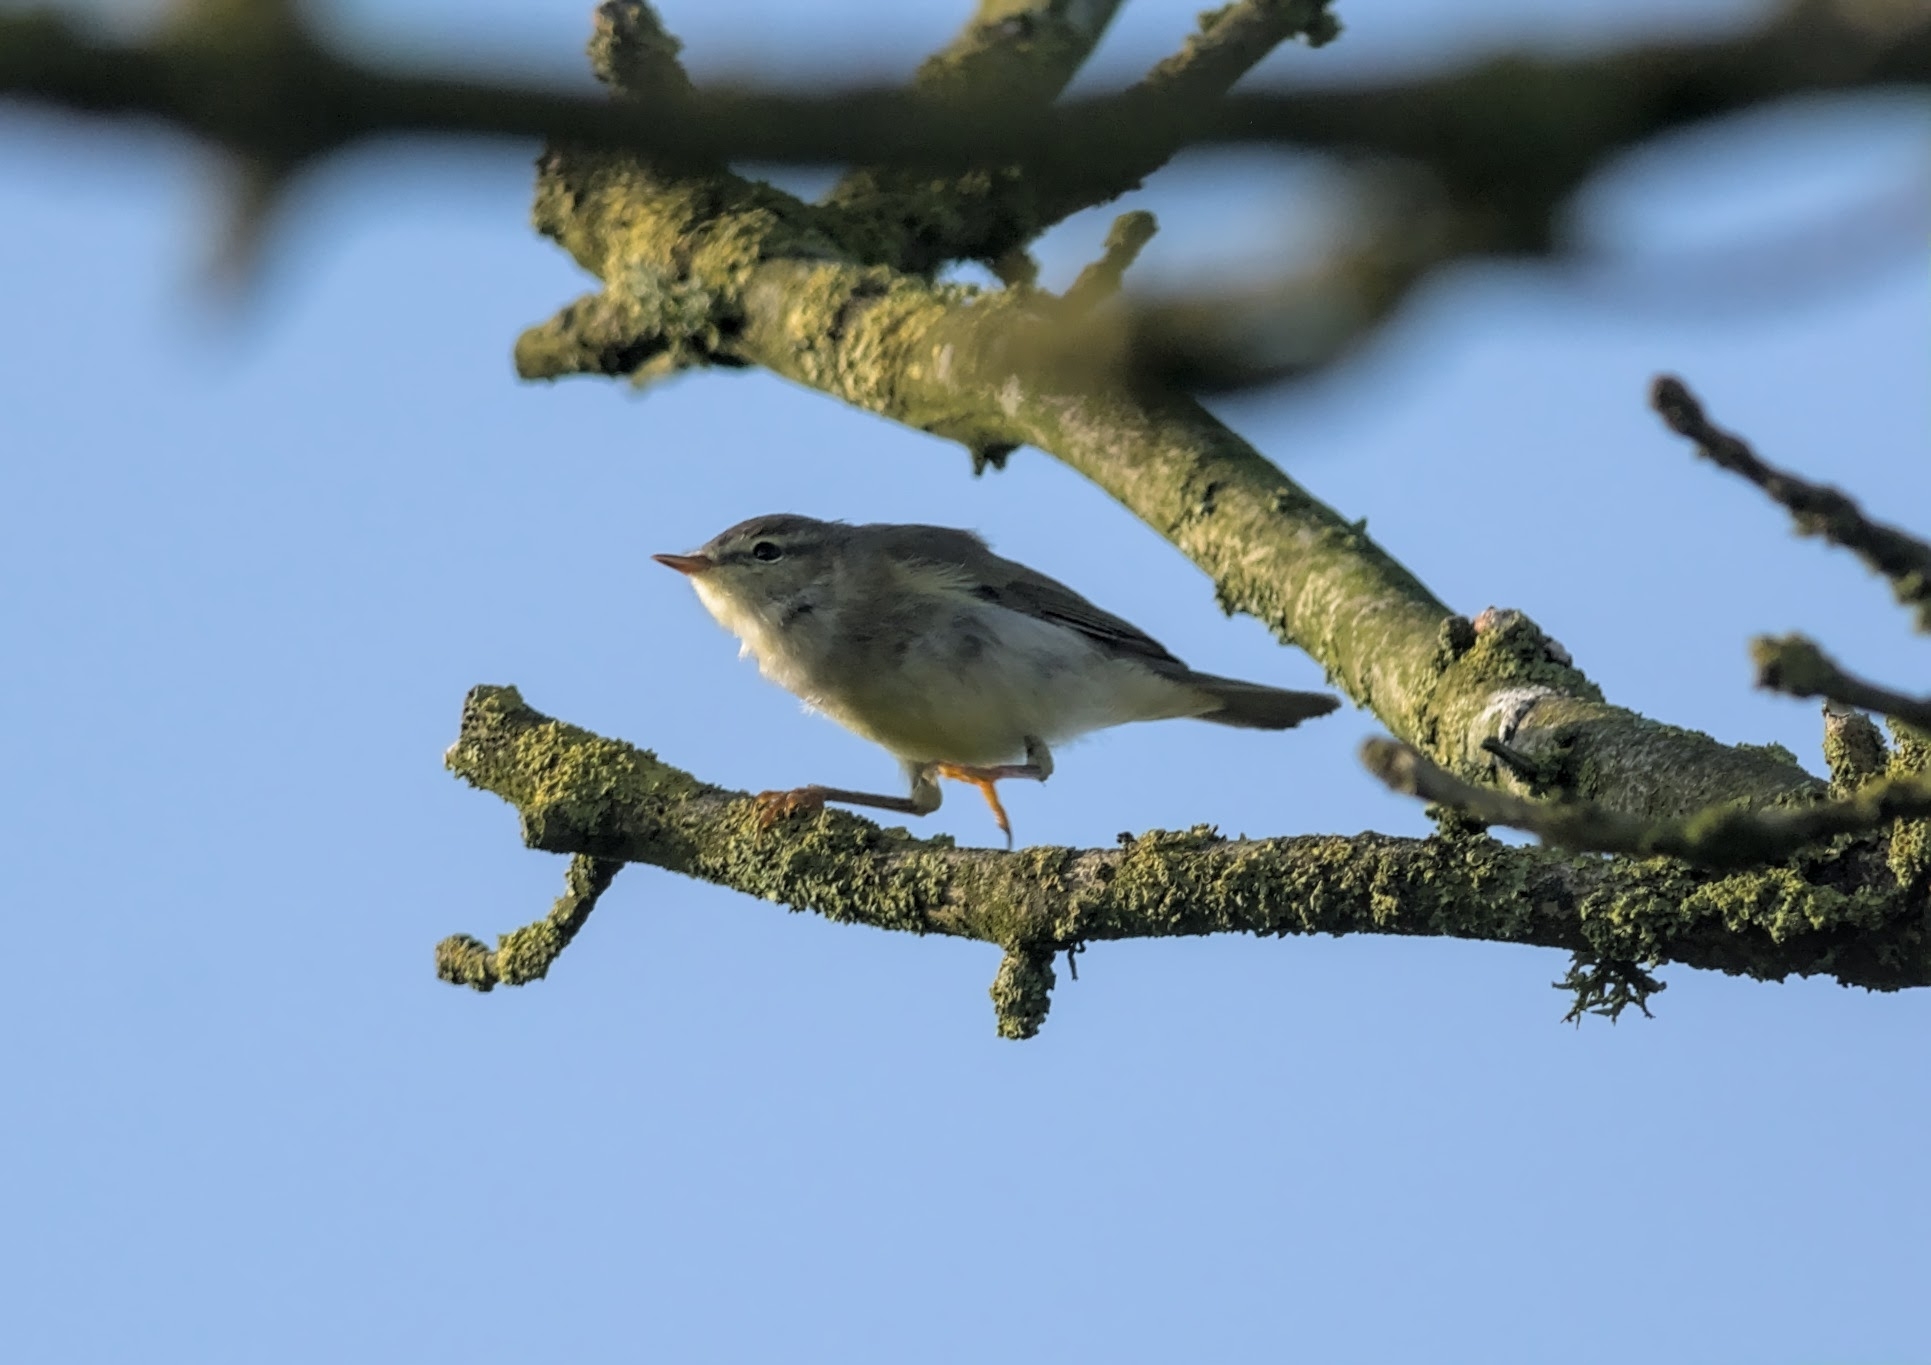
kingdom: Animalia
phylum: Chordata
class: Aves
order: Passeriformes
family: Phylloscopidae
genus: Phylloscopus
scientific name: Phylloscopus trochilus
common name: Willow warbler
